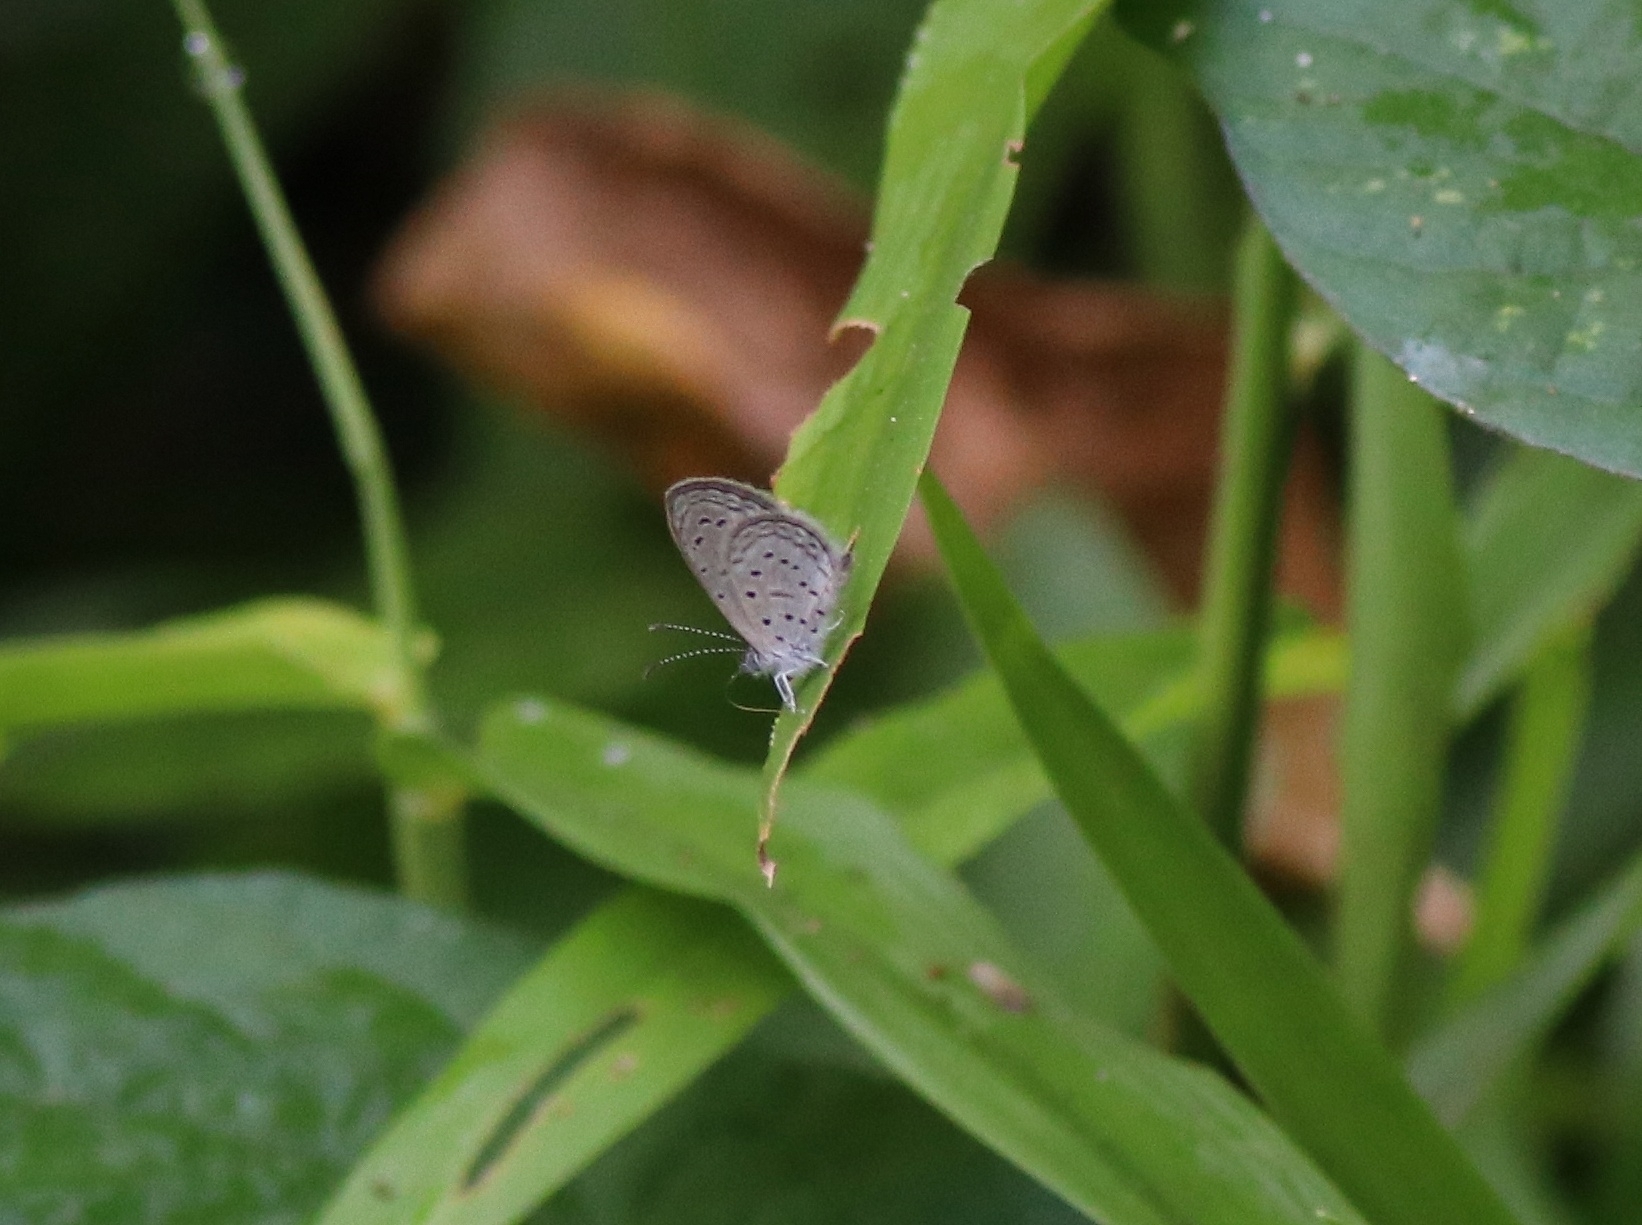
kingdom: Animalia
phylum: Arthropoda
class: Insecta
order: Lepidoptera
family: Lycaenidae
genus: Zizula
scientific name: Zizula hylax
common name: Gaika blue
